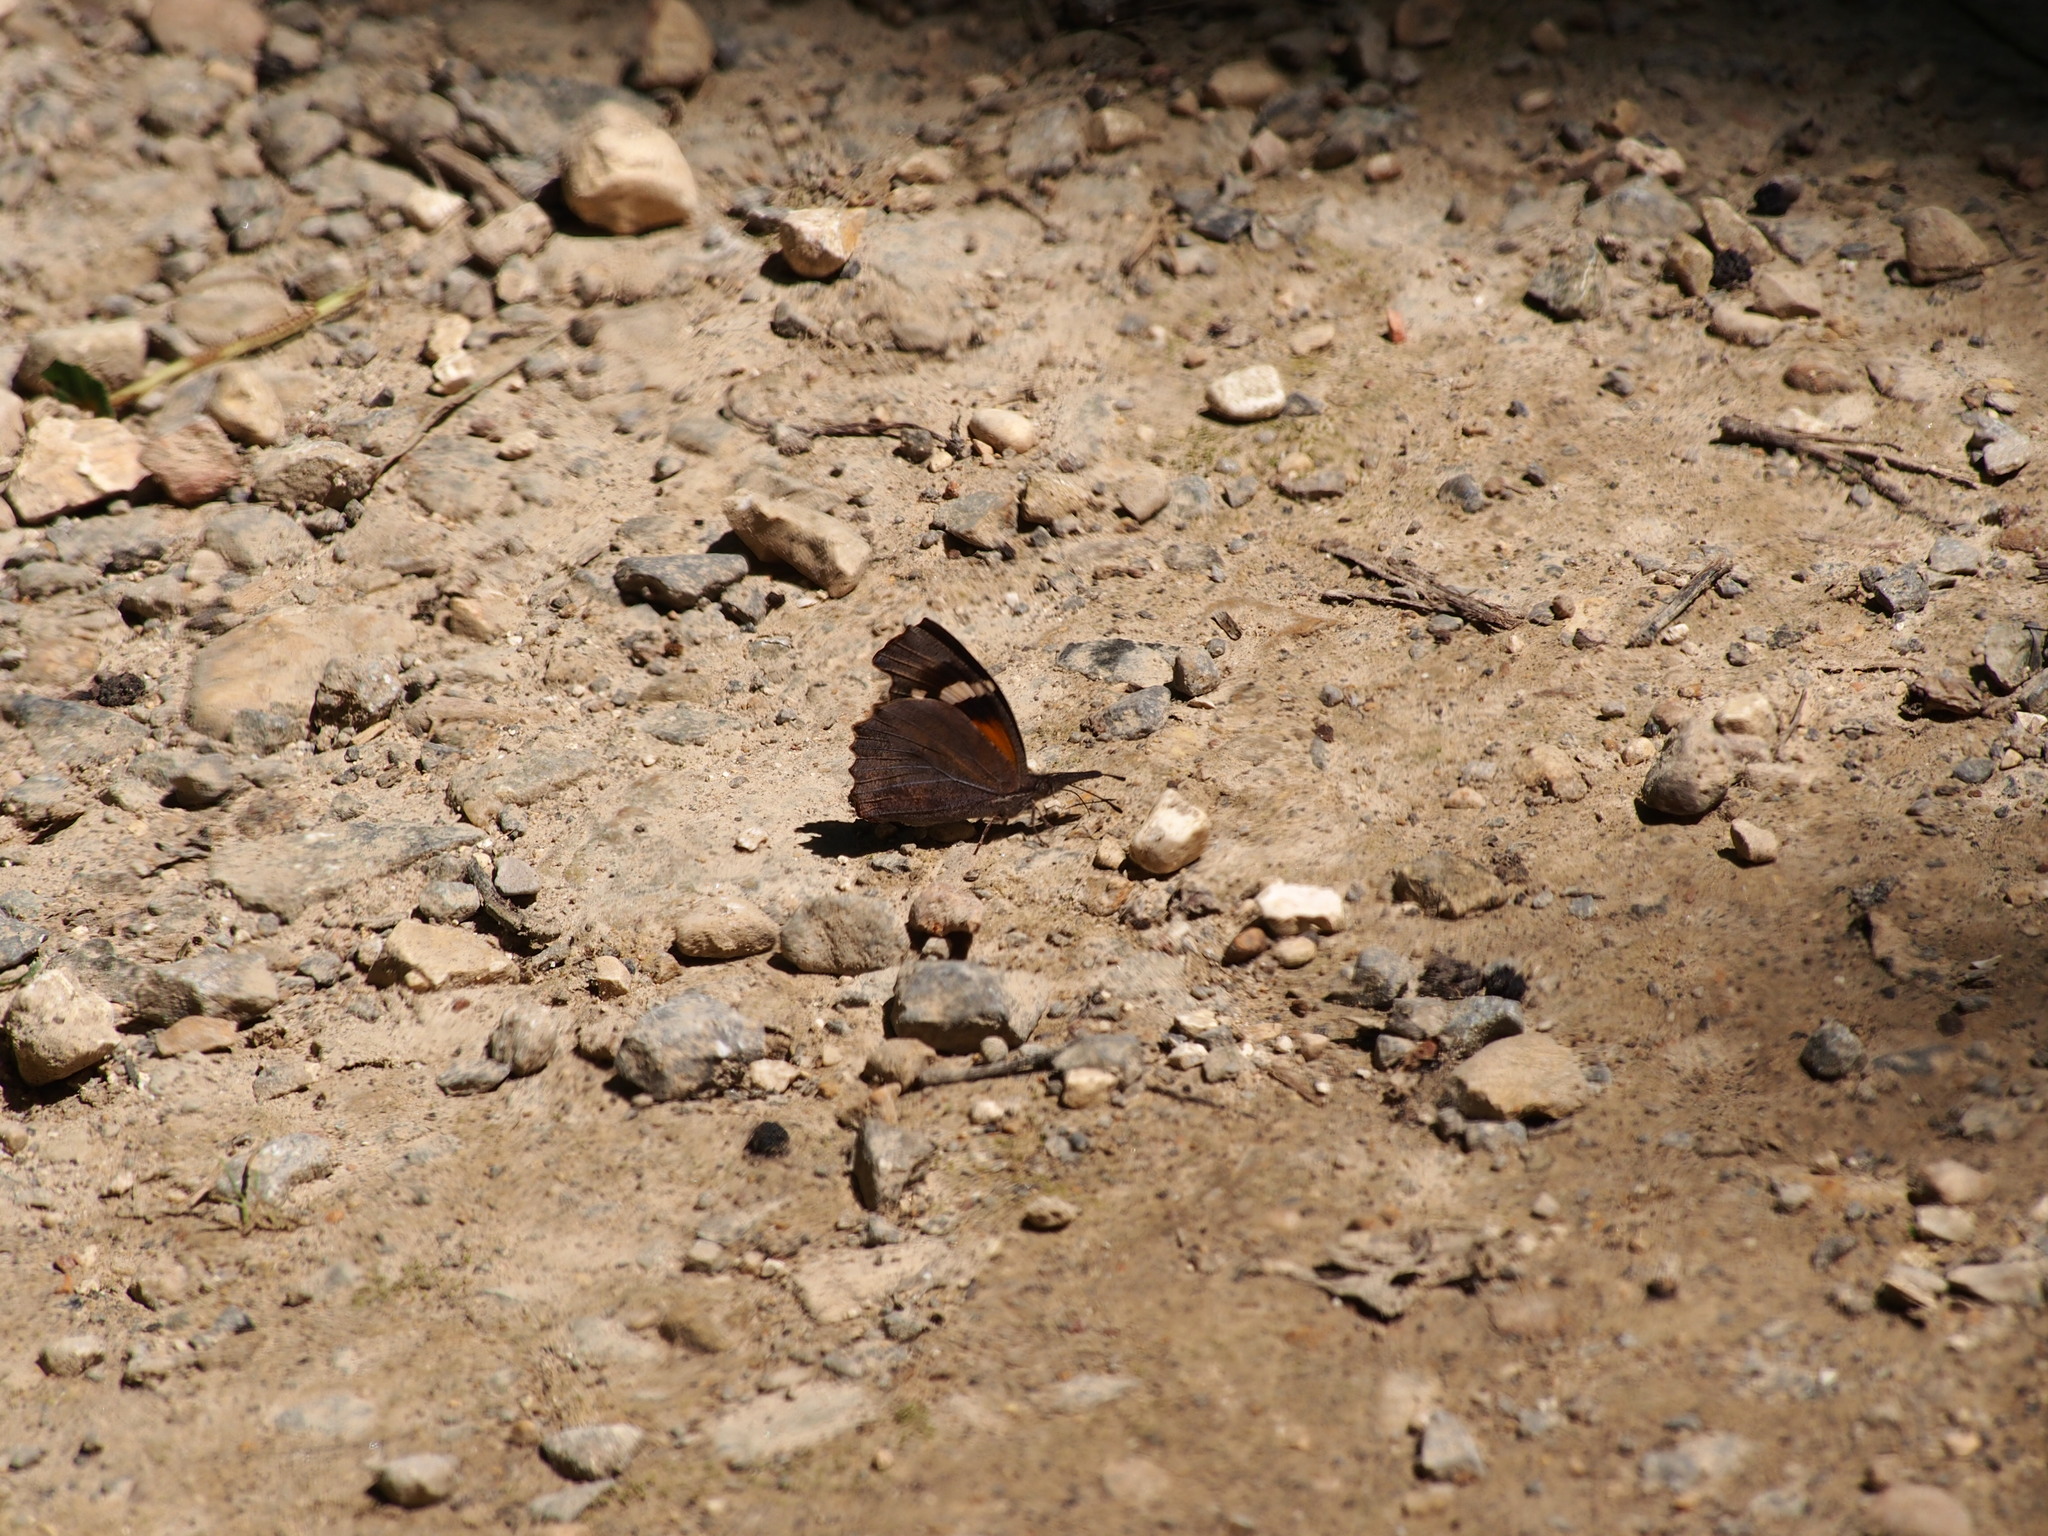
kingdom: Animalia
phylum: Arthropoda
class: Insecta
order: Lepidoptera
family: Nymphalidae
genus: Libytheana
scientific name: Libytheana carinenta
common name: American snout
